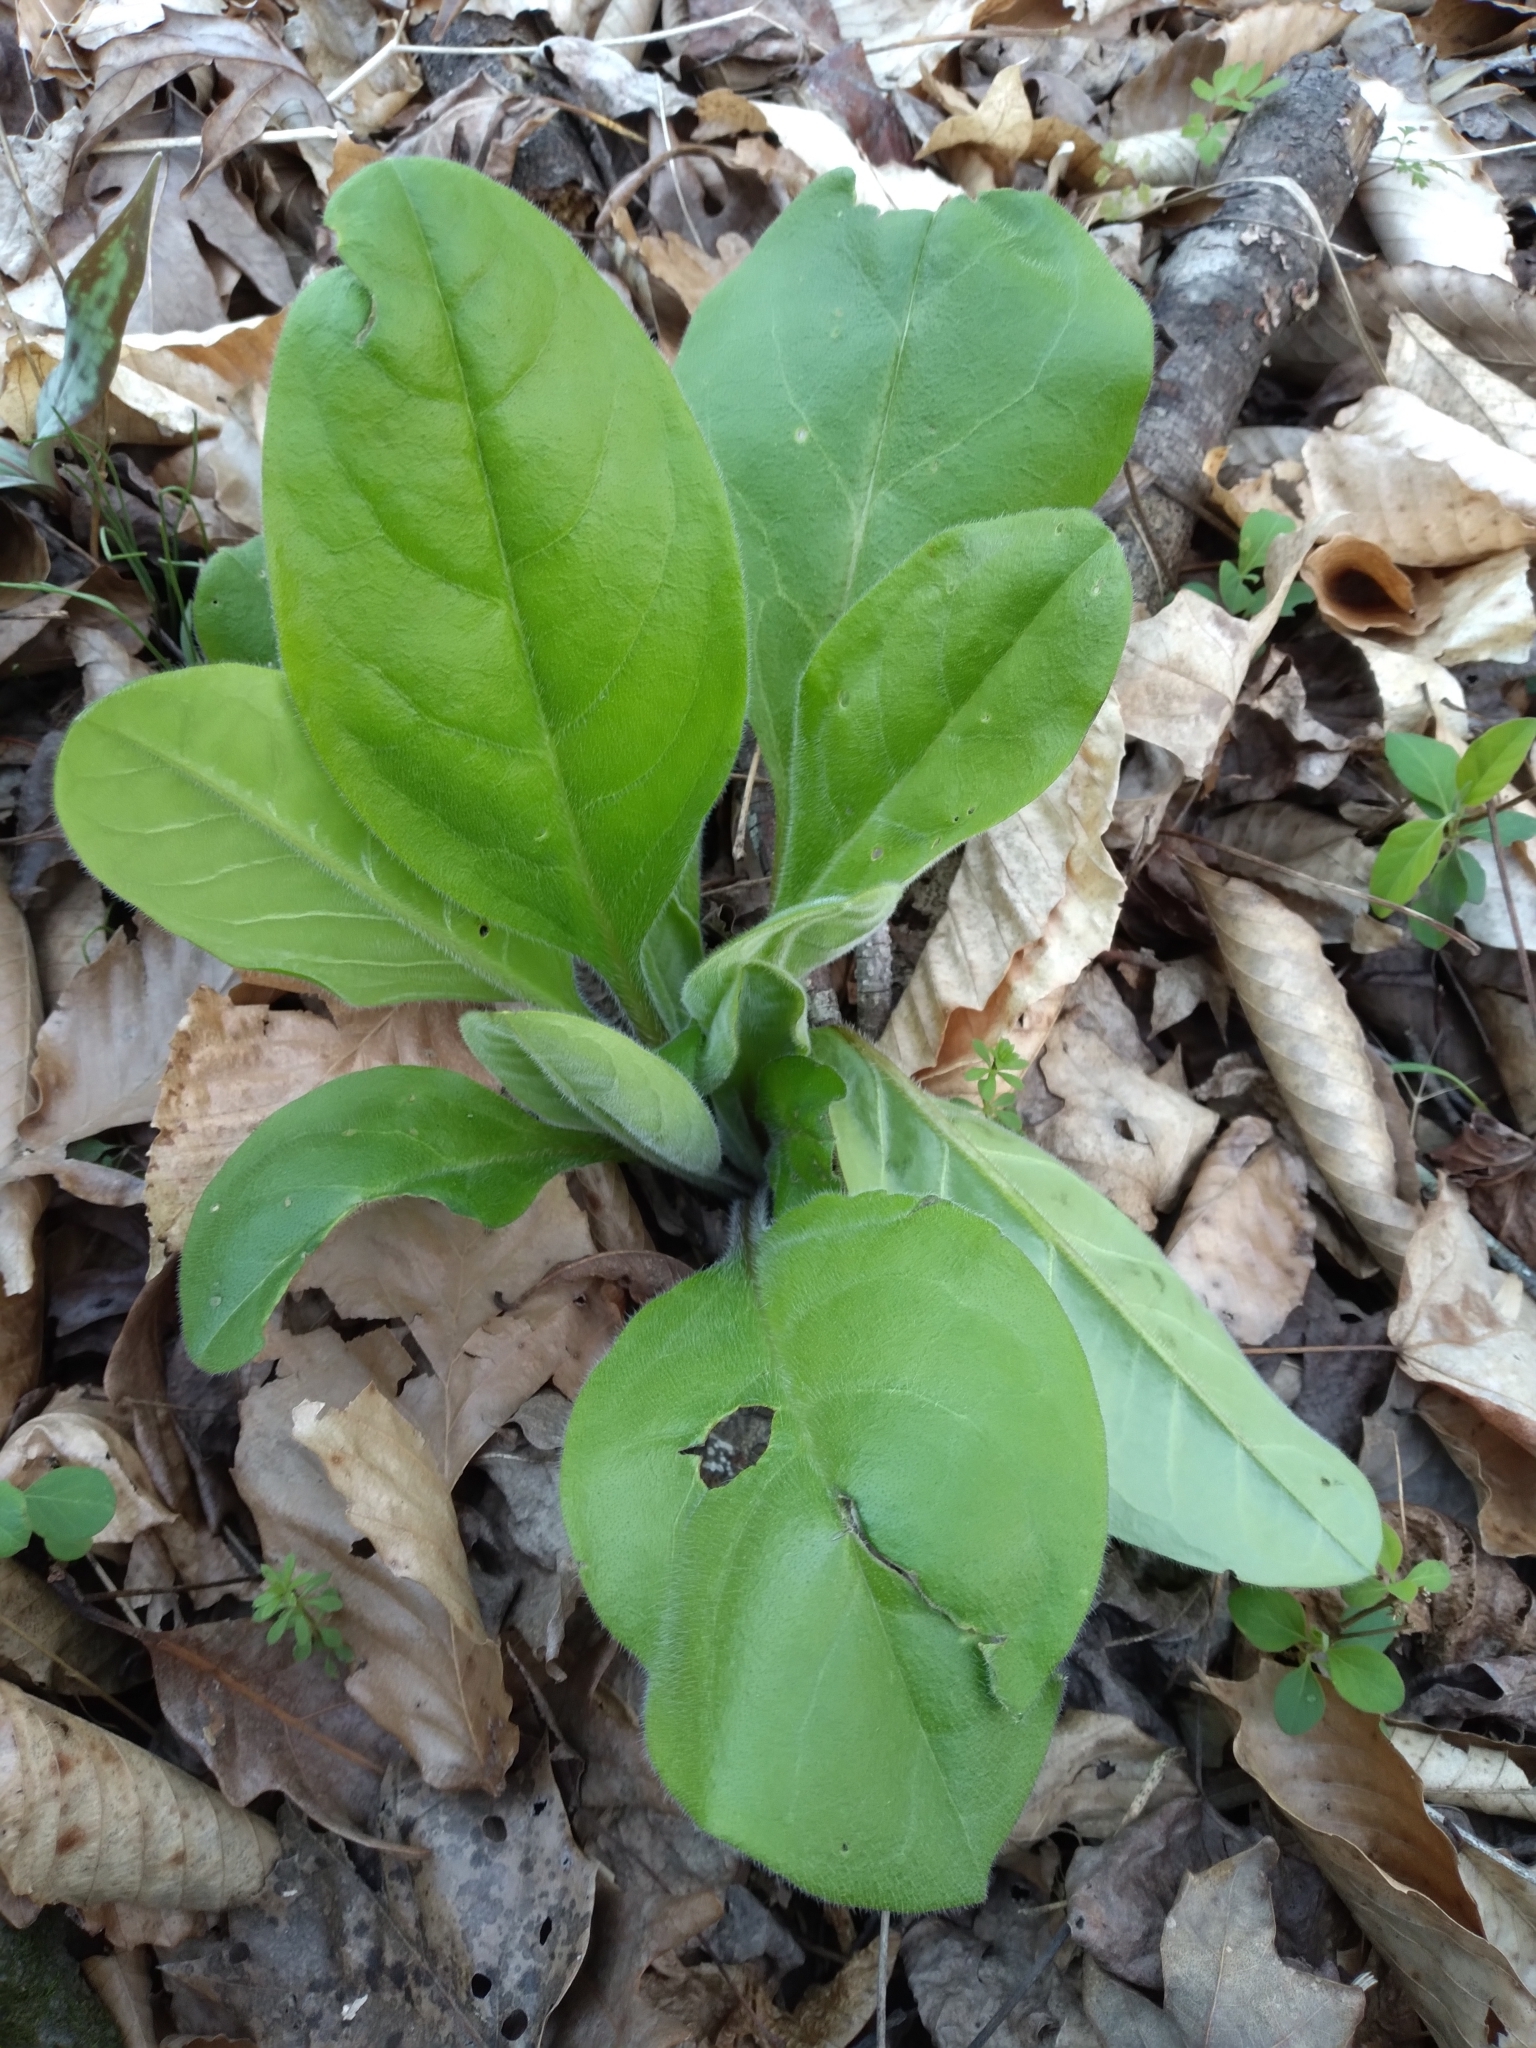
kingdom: Plantae
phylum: Tracheophyta
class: Magnoliopsida
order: Boraginales
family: Boraginaceae
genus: Andersonglossum
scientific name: Andersonglossum virginianum
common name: Wild comfrey
